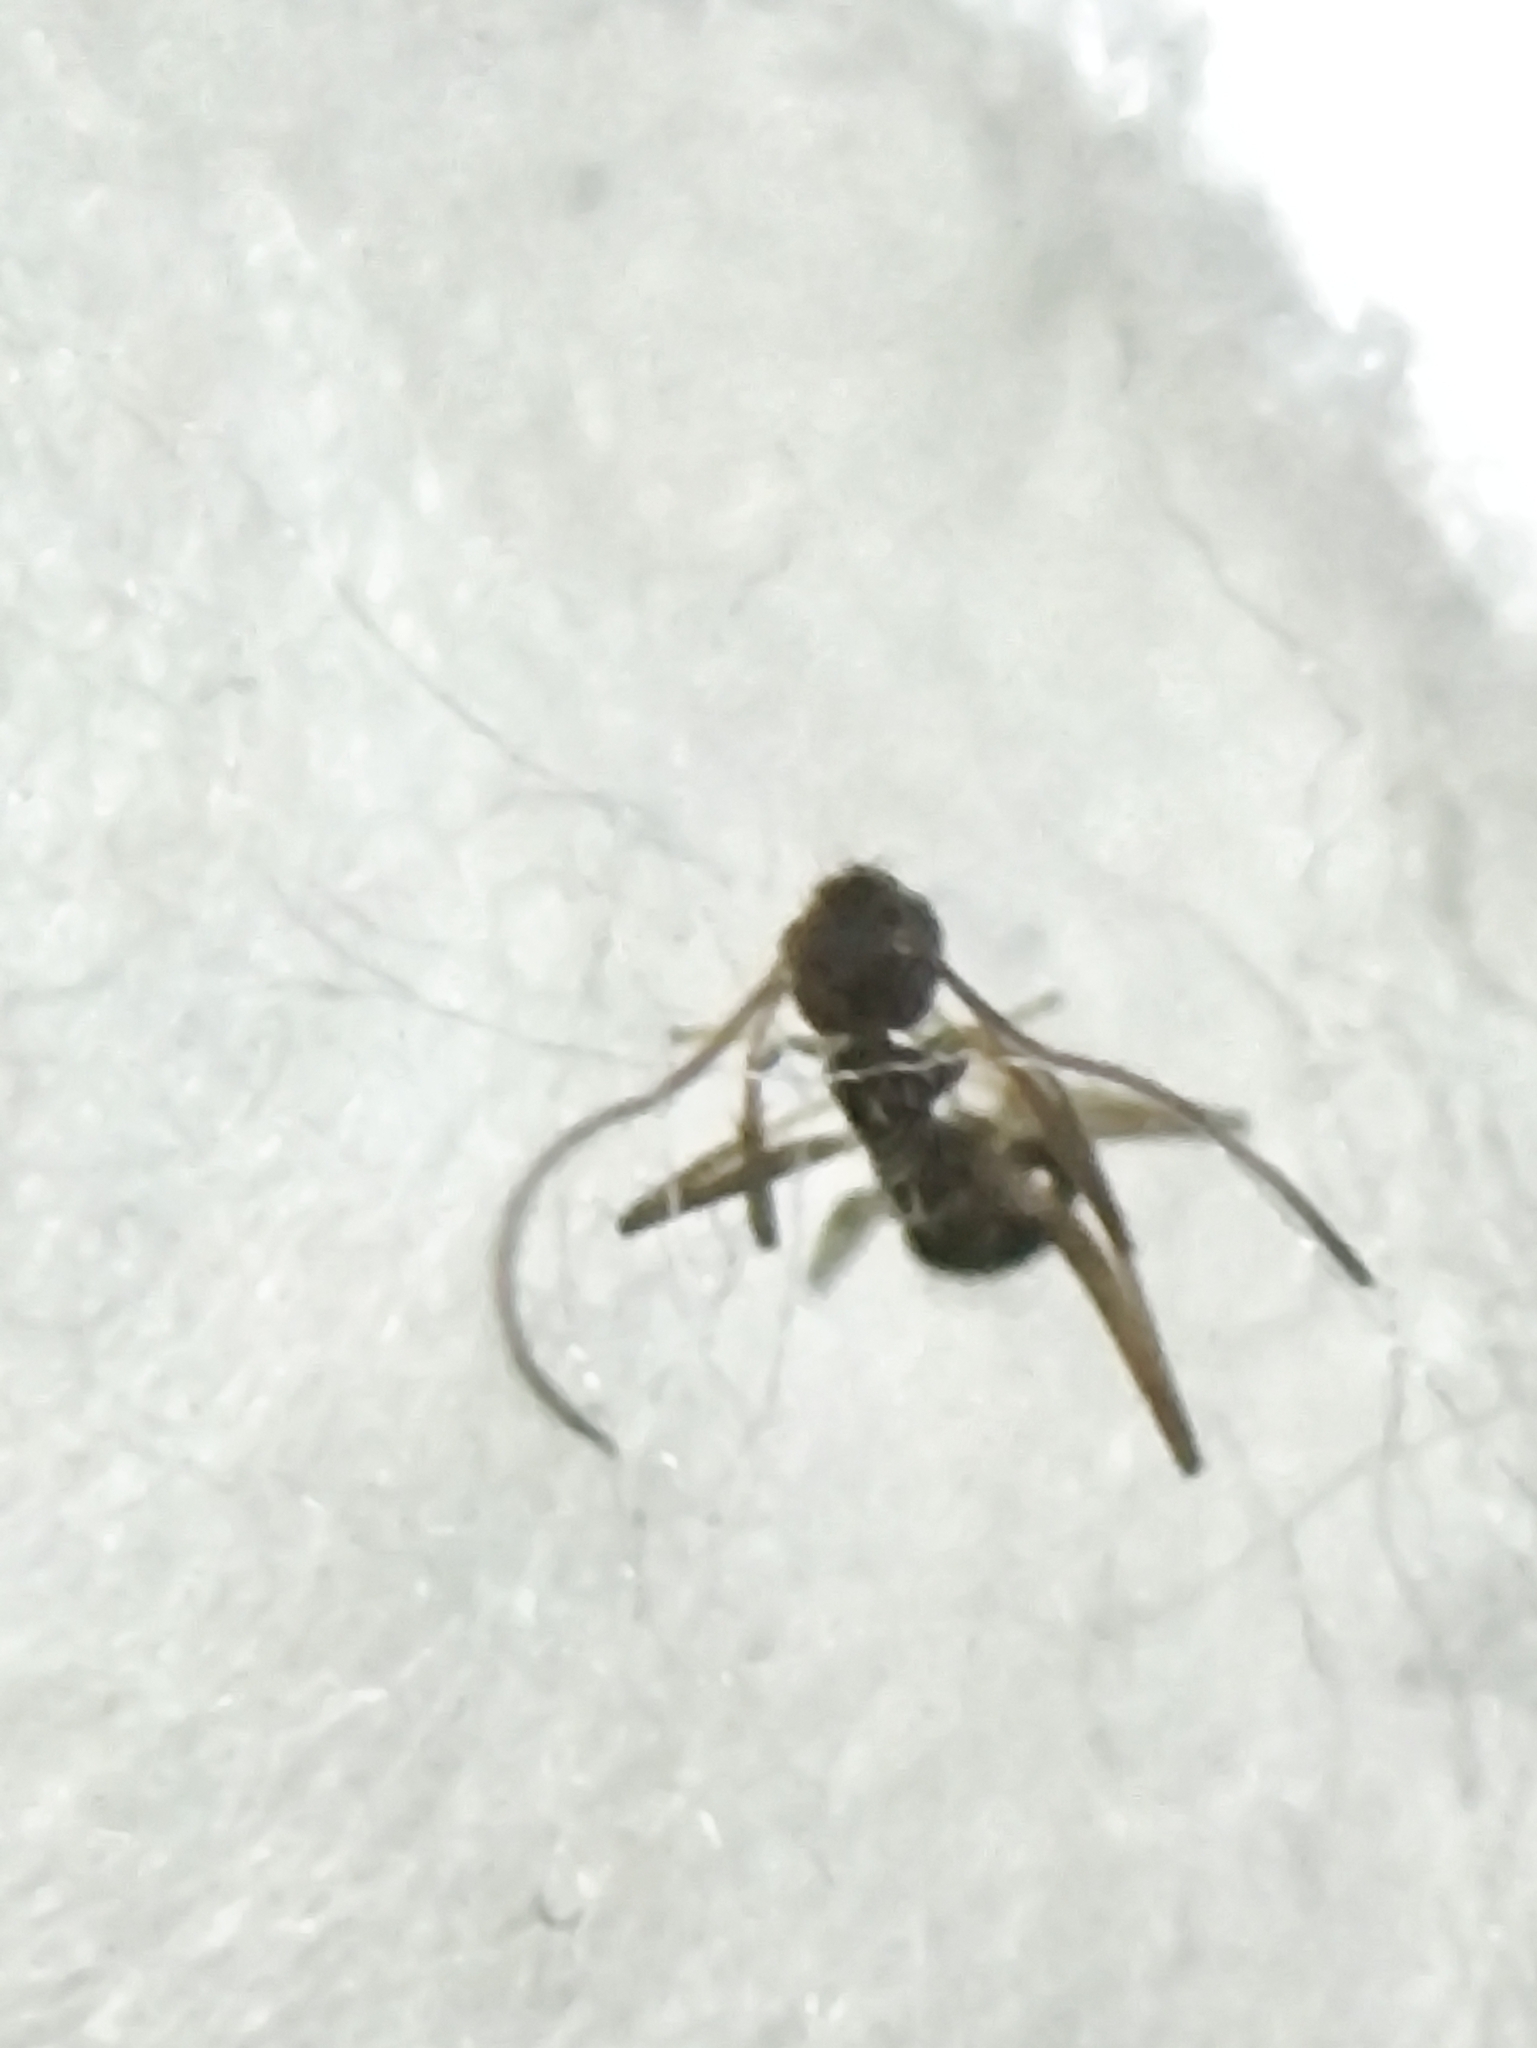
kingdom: Animalia
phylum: Arthropoda
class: Insecta
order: Hymenoptera
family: Formicidae
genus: Paratrechina
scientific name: Paratrechina bourbonica
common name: Ant
